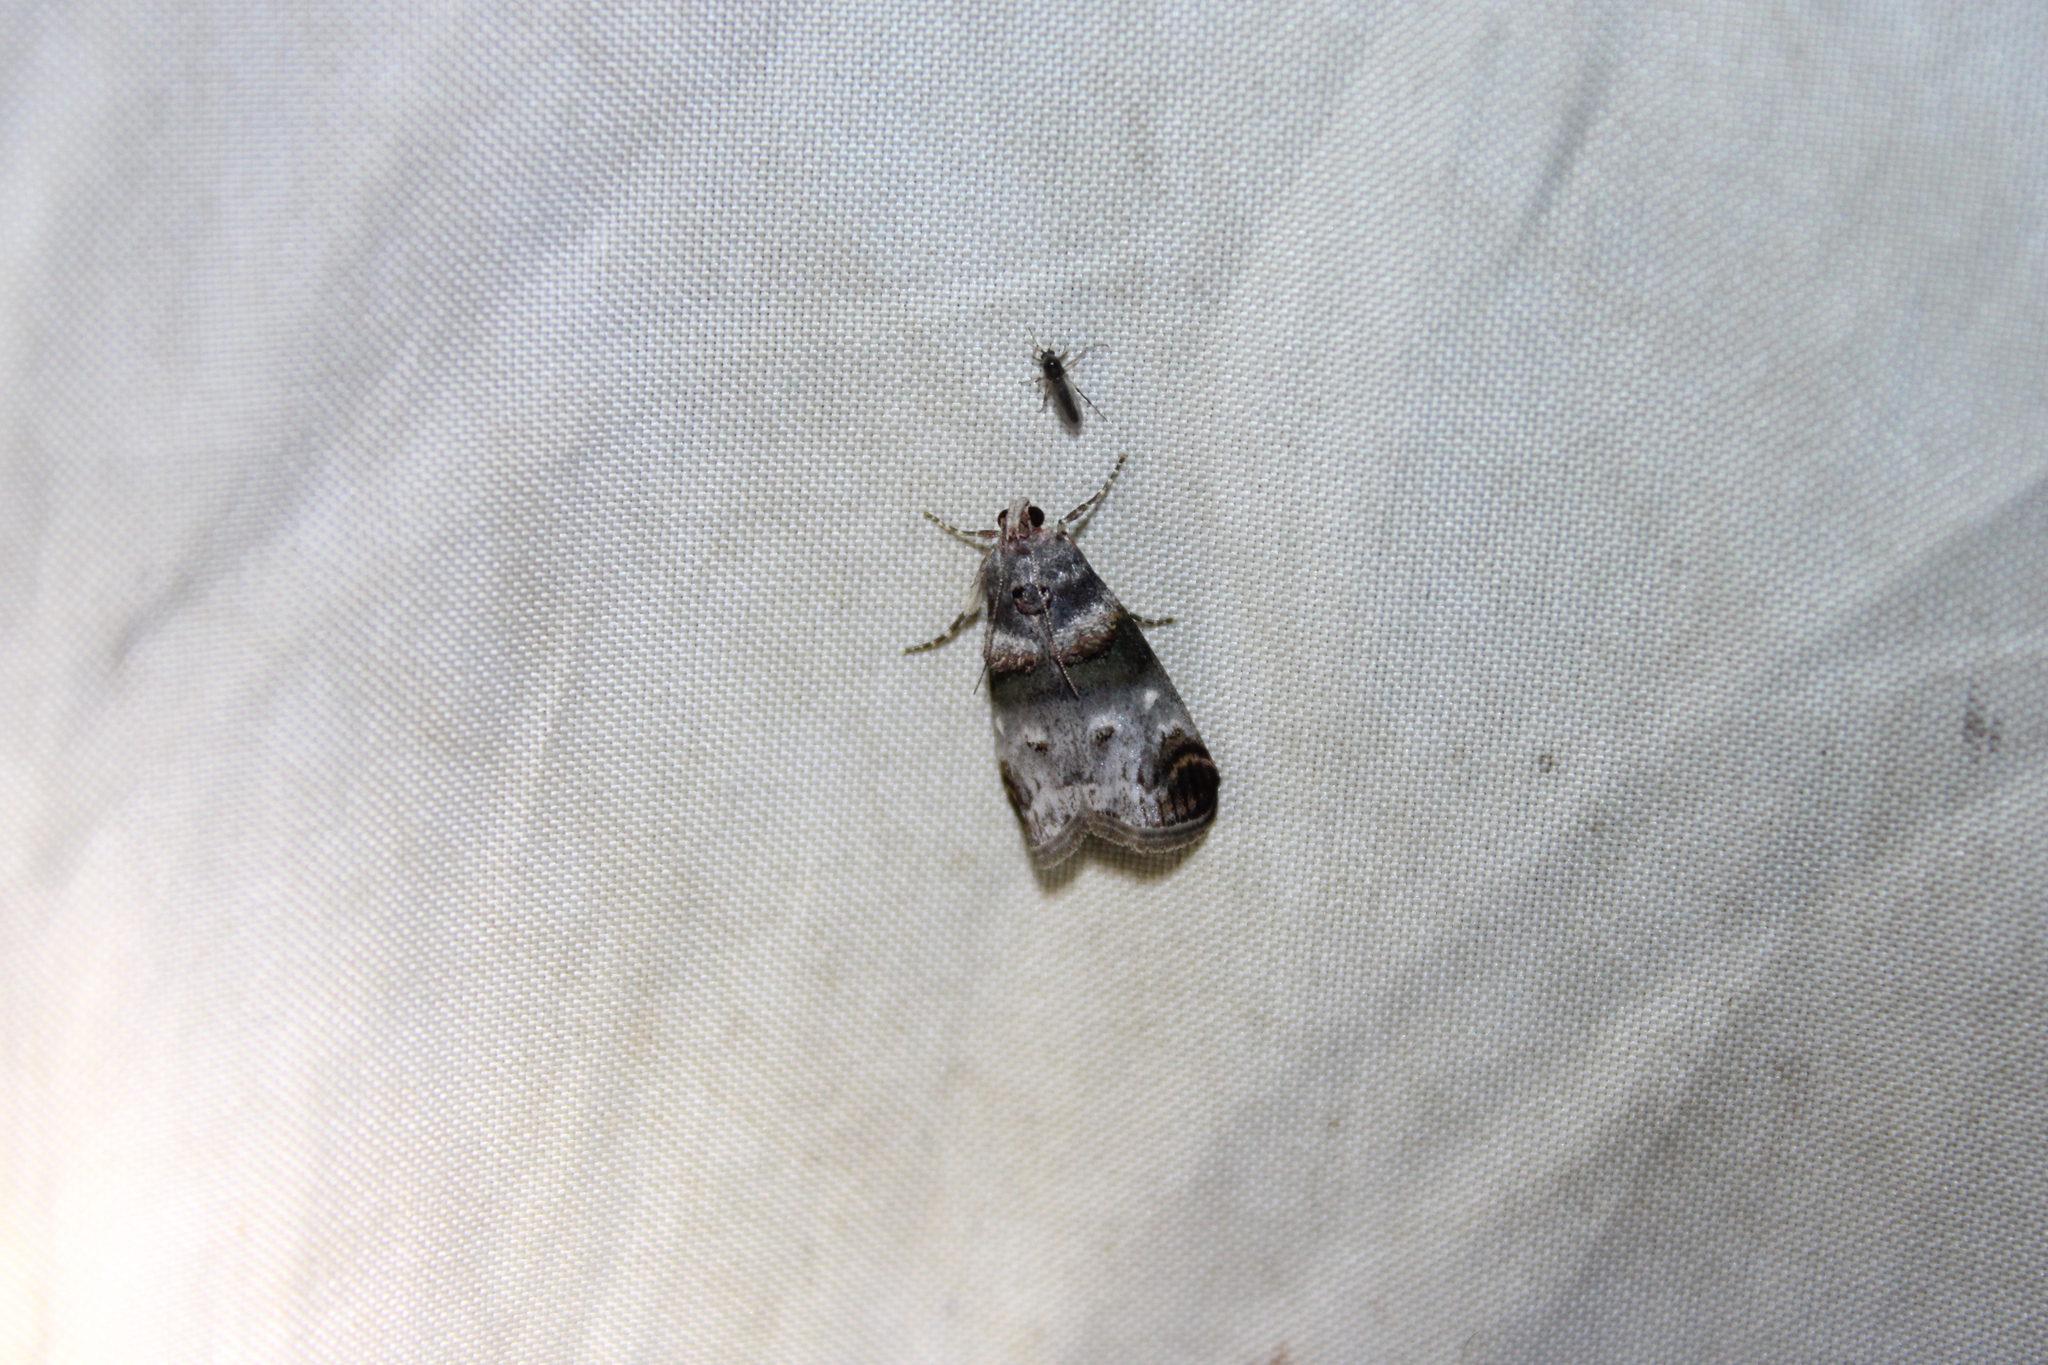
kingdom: Animalia
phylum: Arthropoda
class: Insecta
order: Lepidoptera
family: Pyralidae
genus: Oneida
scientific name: Oneida lunulalis
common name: Orange-tufted oneida moth
